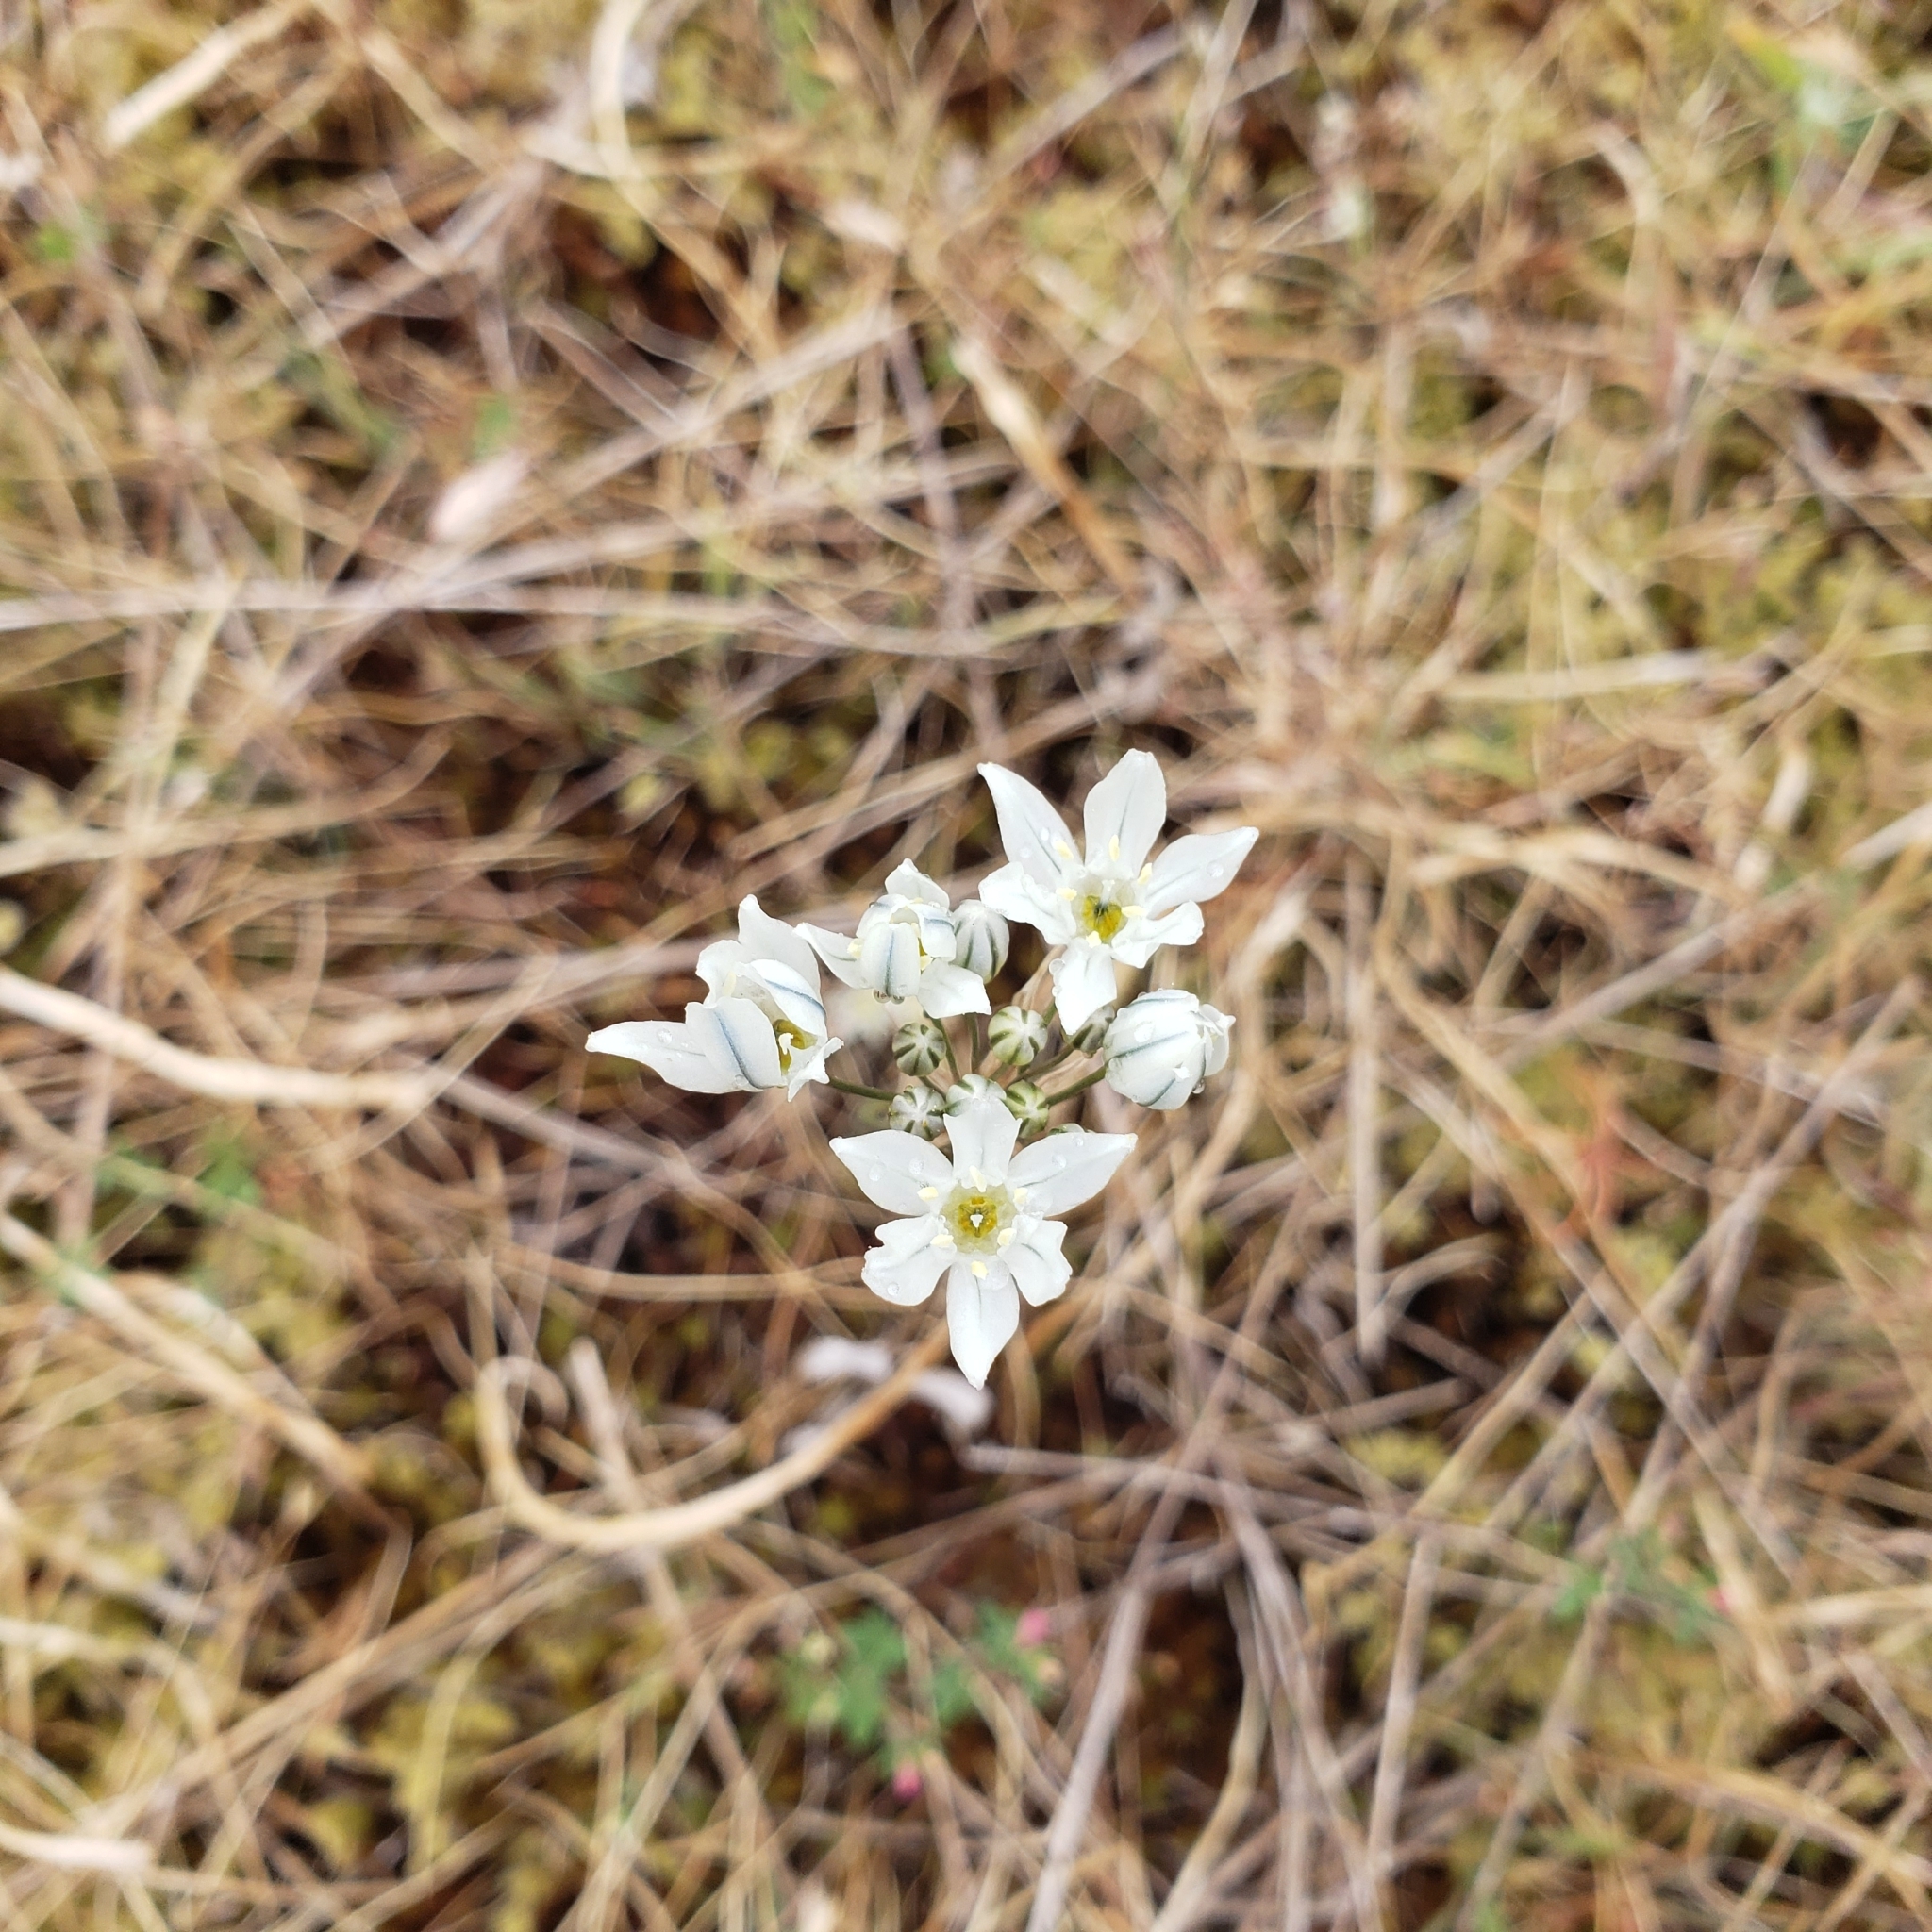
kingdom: Plantae
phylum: Tracheophyta
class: Liliopsida
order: Asparagales
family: Asparagaceae
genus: Triteleia
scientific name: Triteleia hyacinthina
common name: White brodiaea
